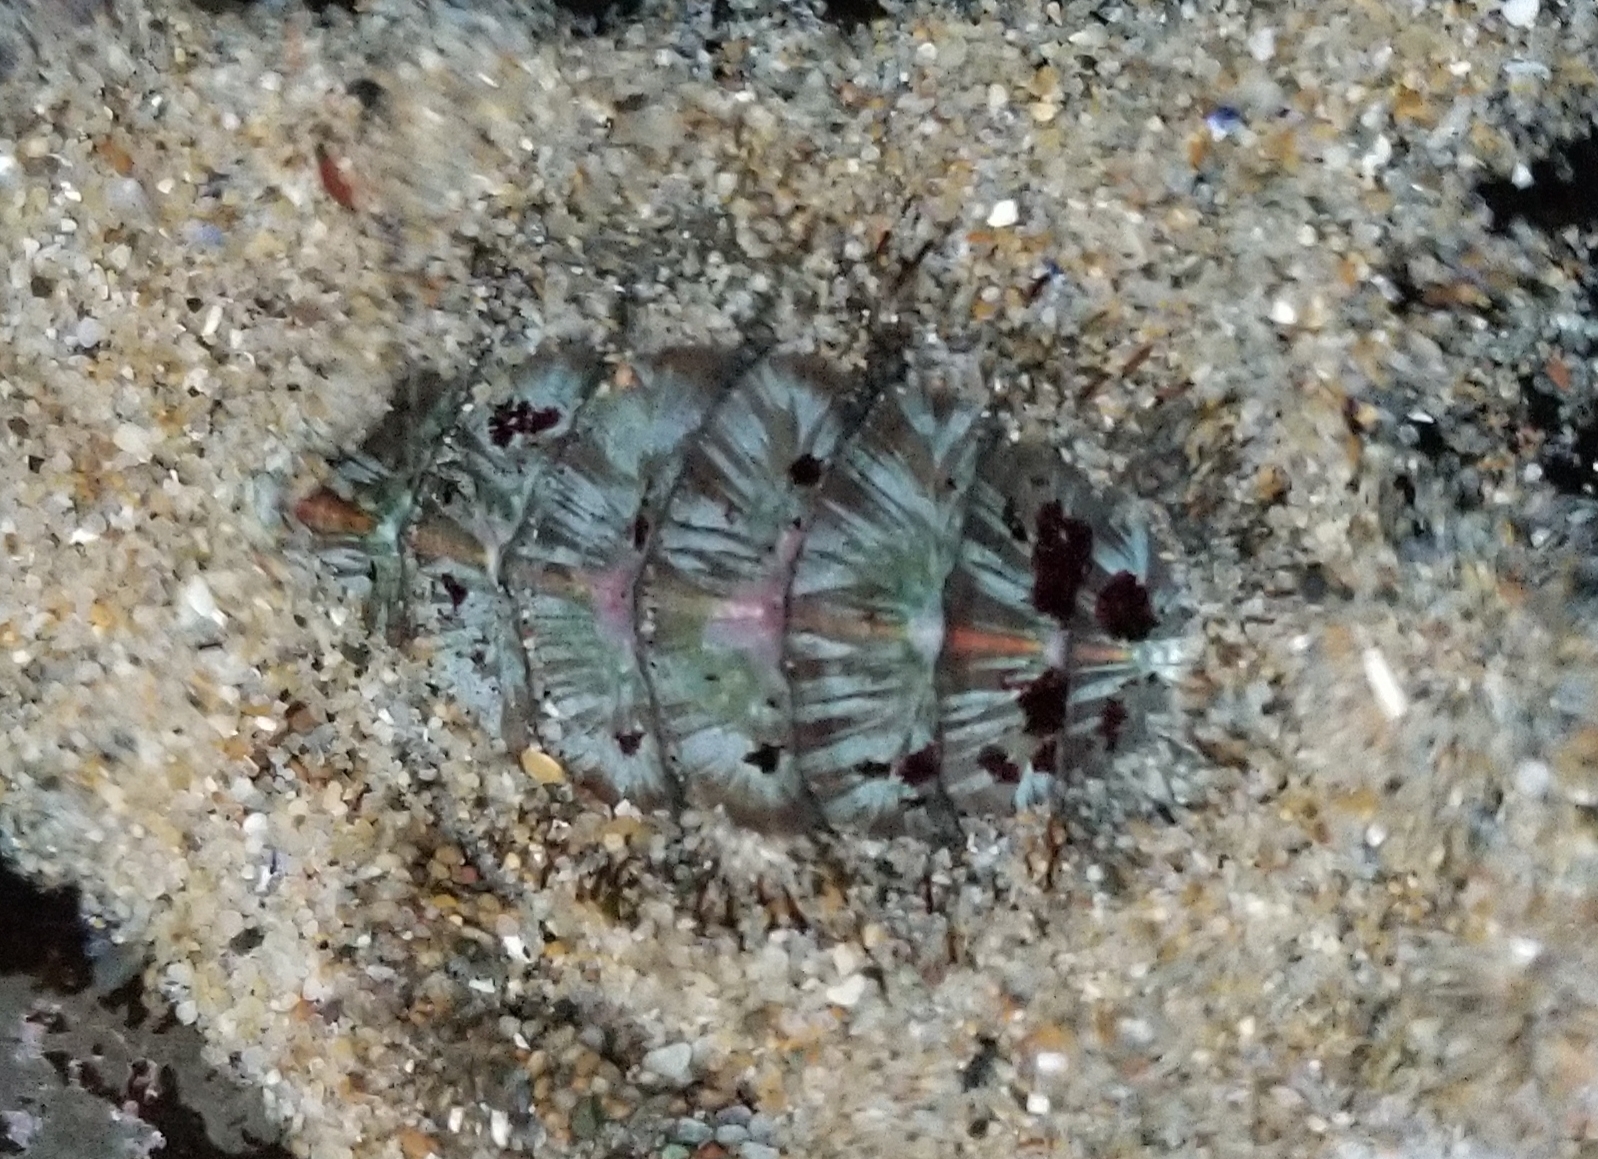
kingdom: Animalia
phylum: Mollusca
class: Polyplacophora
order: Chitonida
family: Mopaliidae
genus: Mopalia
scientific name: Mopalia lignosa
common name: Woody chiton
